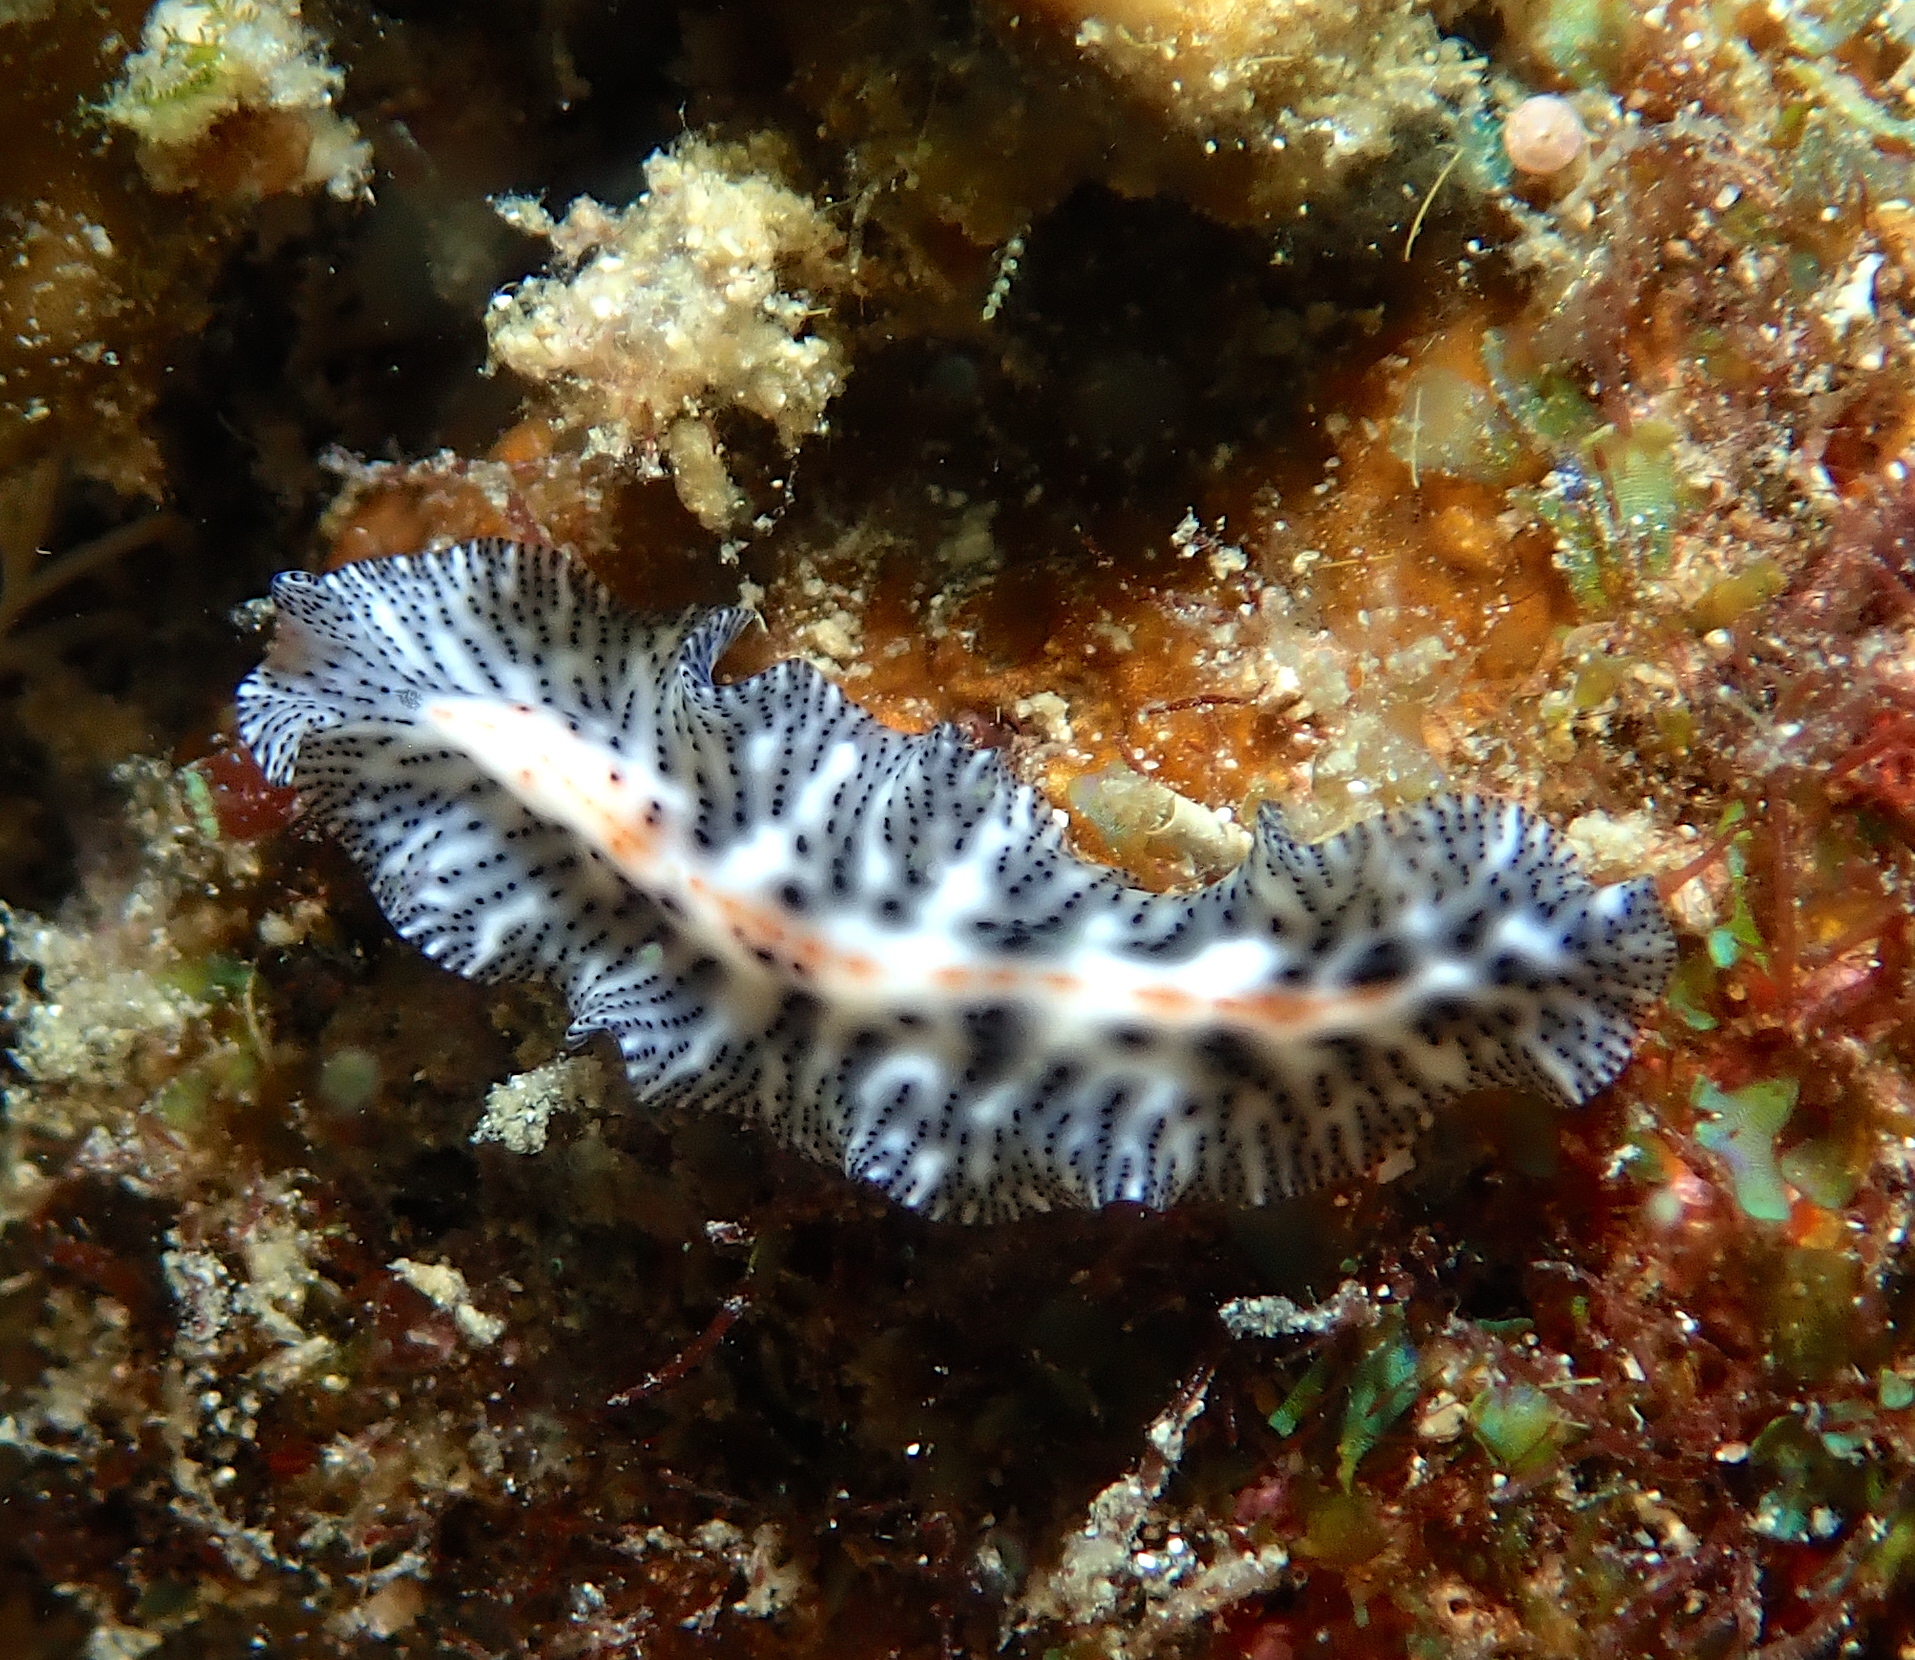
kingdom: Animalia
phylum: Platyhelminthes
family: Euryleptidae
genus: Maritigrella
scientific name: Maritigrella virgulata
